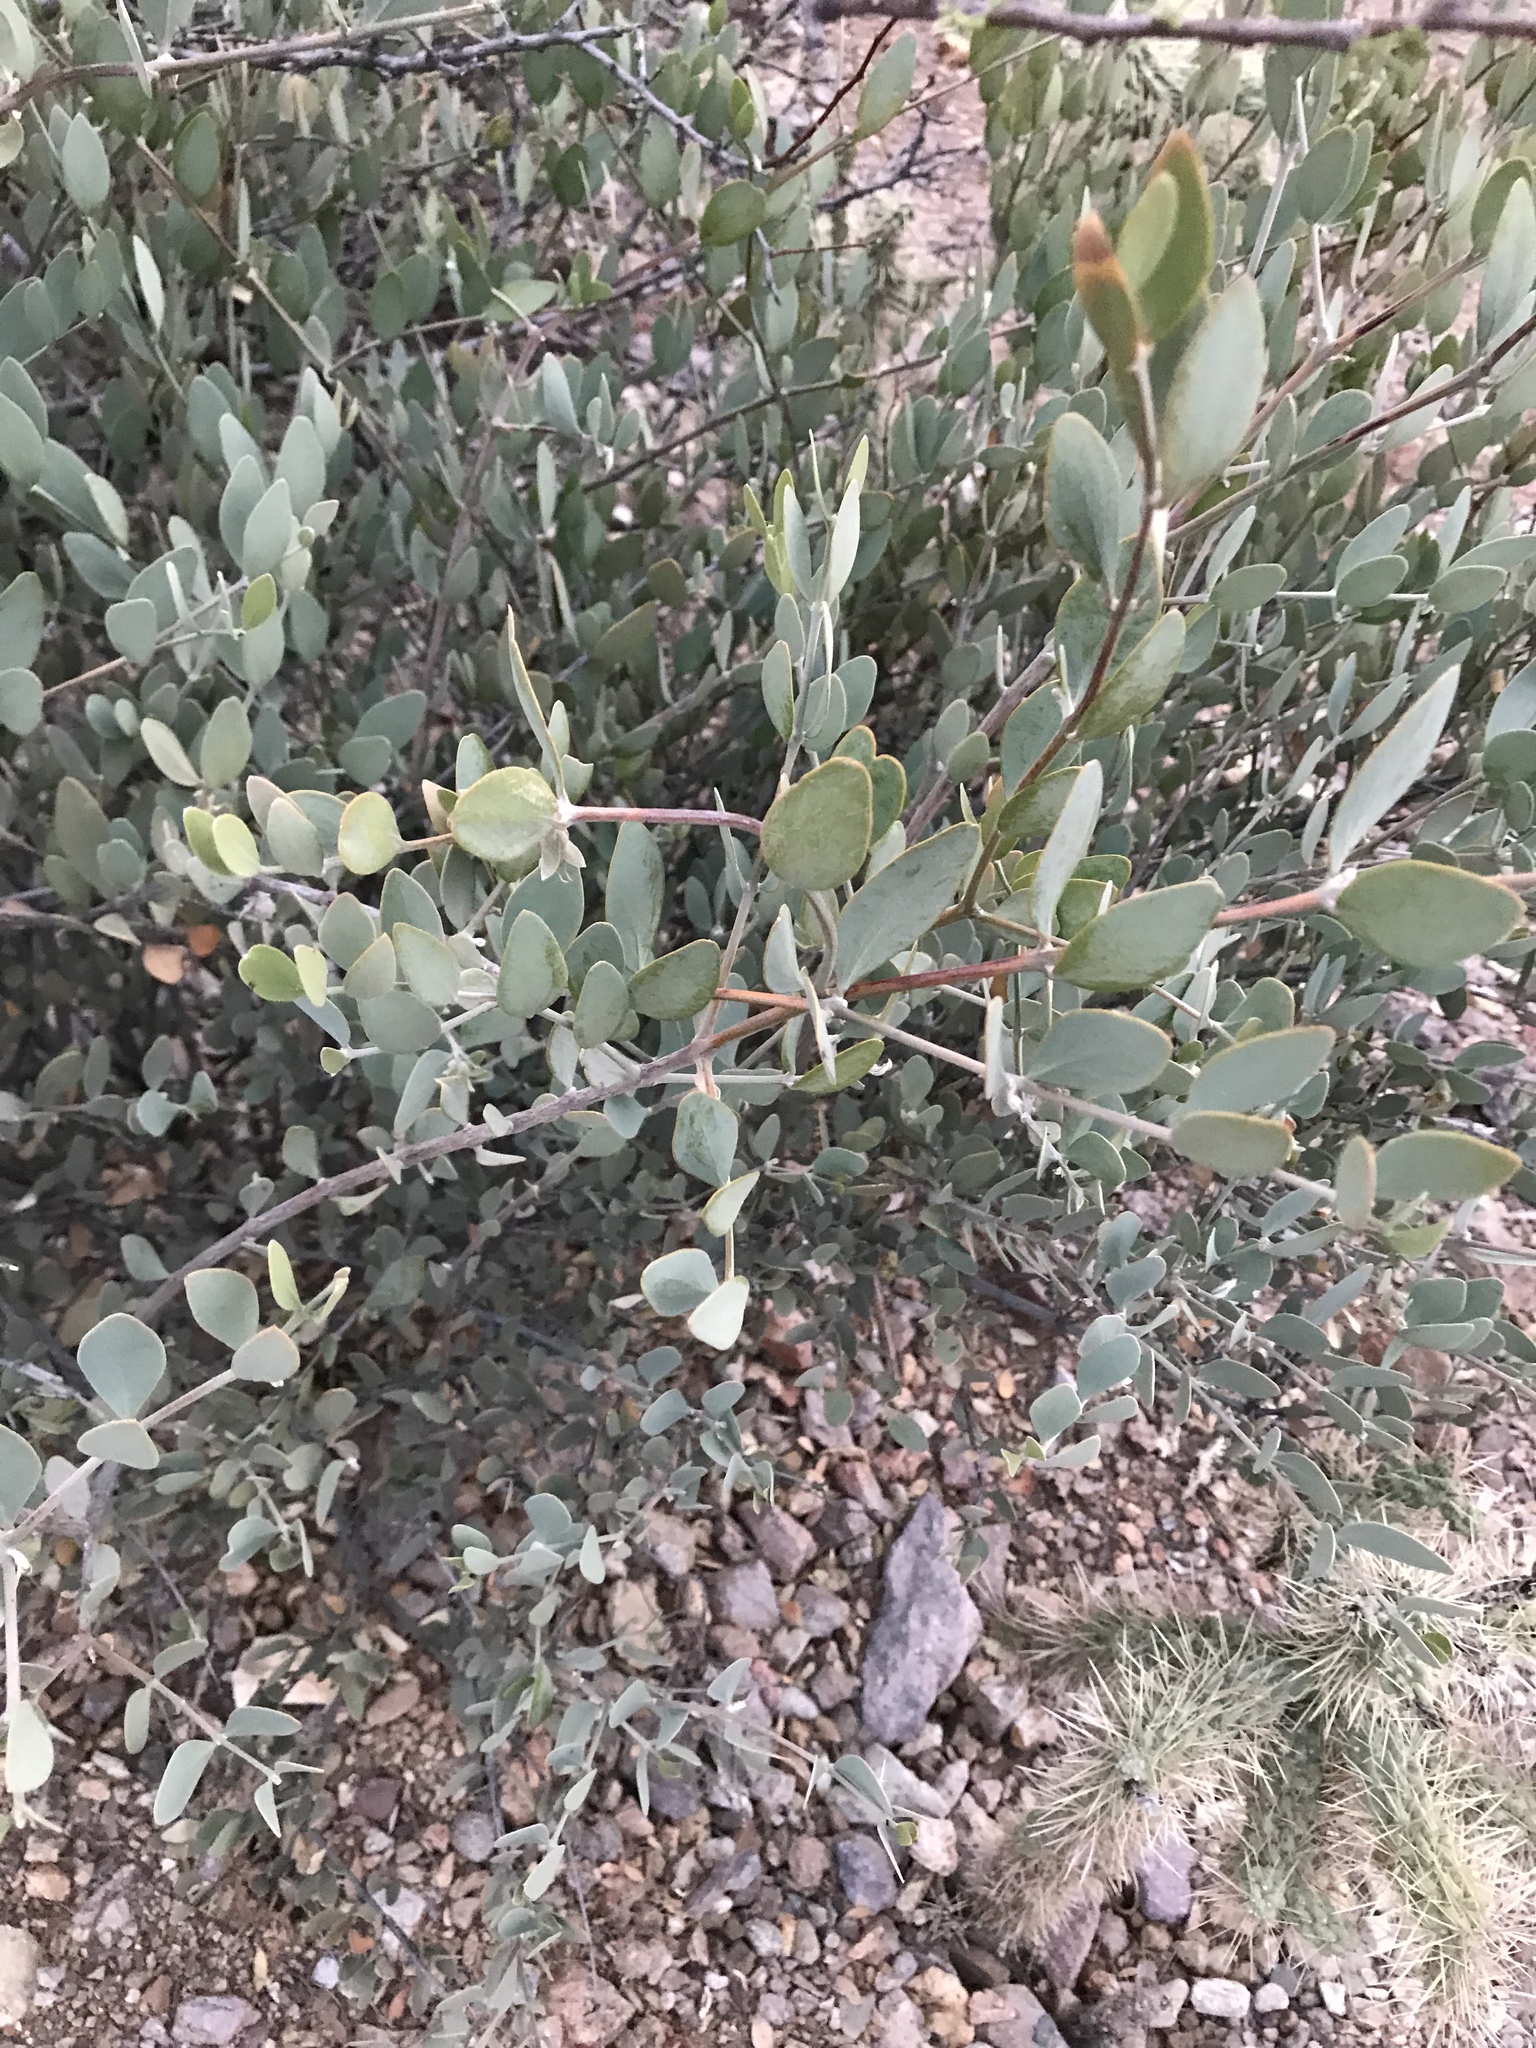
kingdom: Plantae
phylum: Tracheophyta
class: Magnoliopsida
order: Caryophyllales
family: Simmondsiaceae
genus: Simmondsia
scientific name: Simmondsia chinensis
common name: Jojoba
